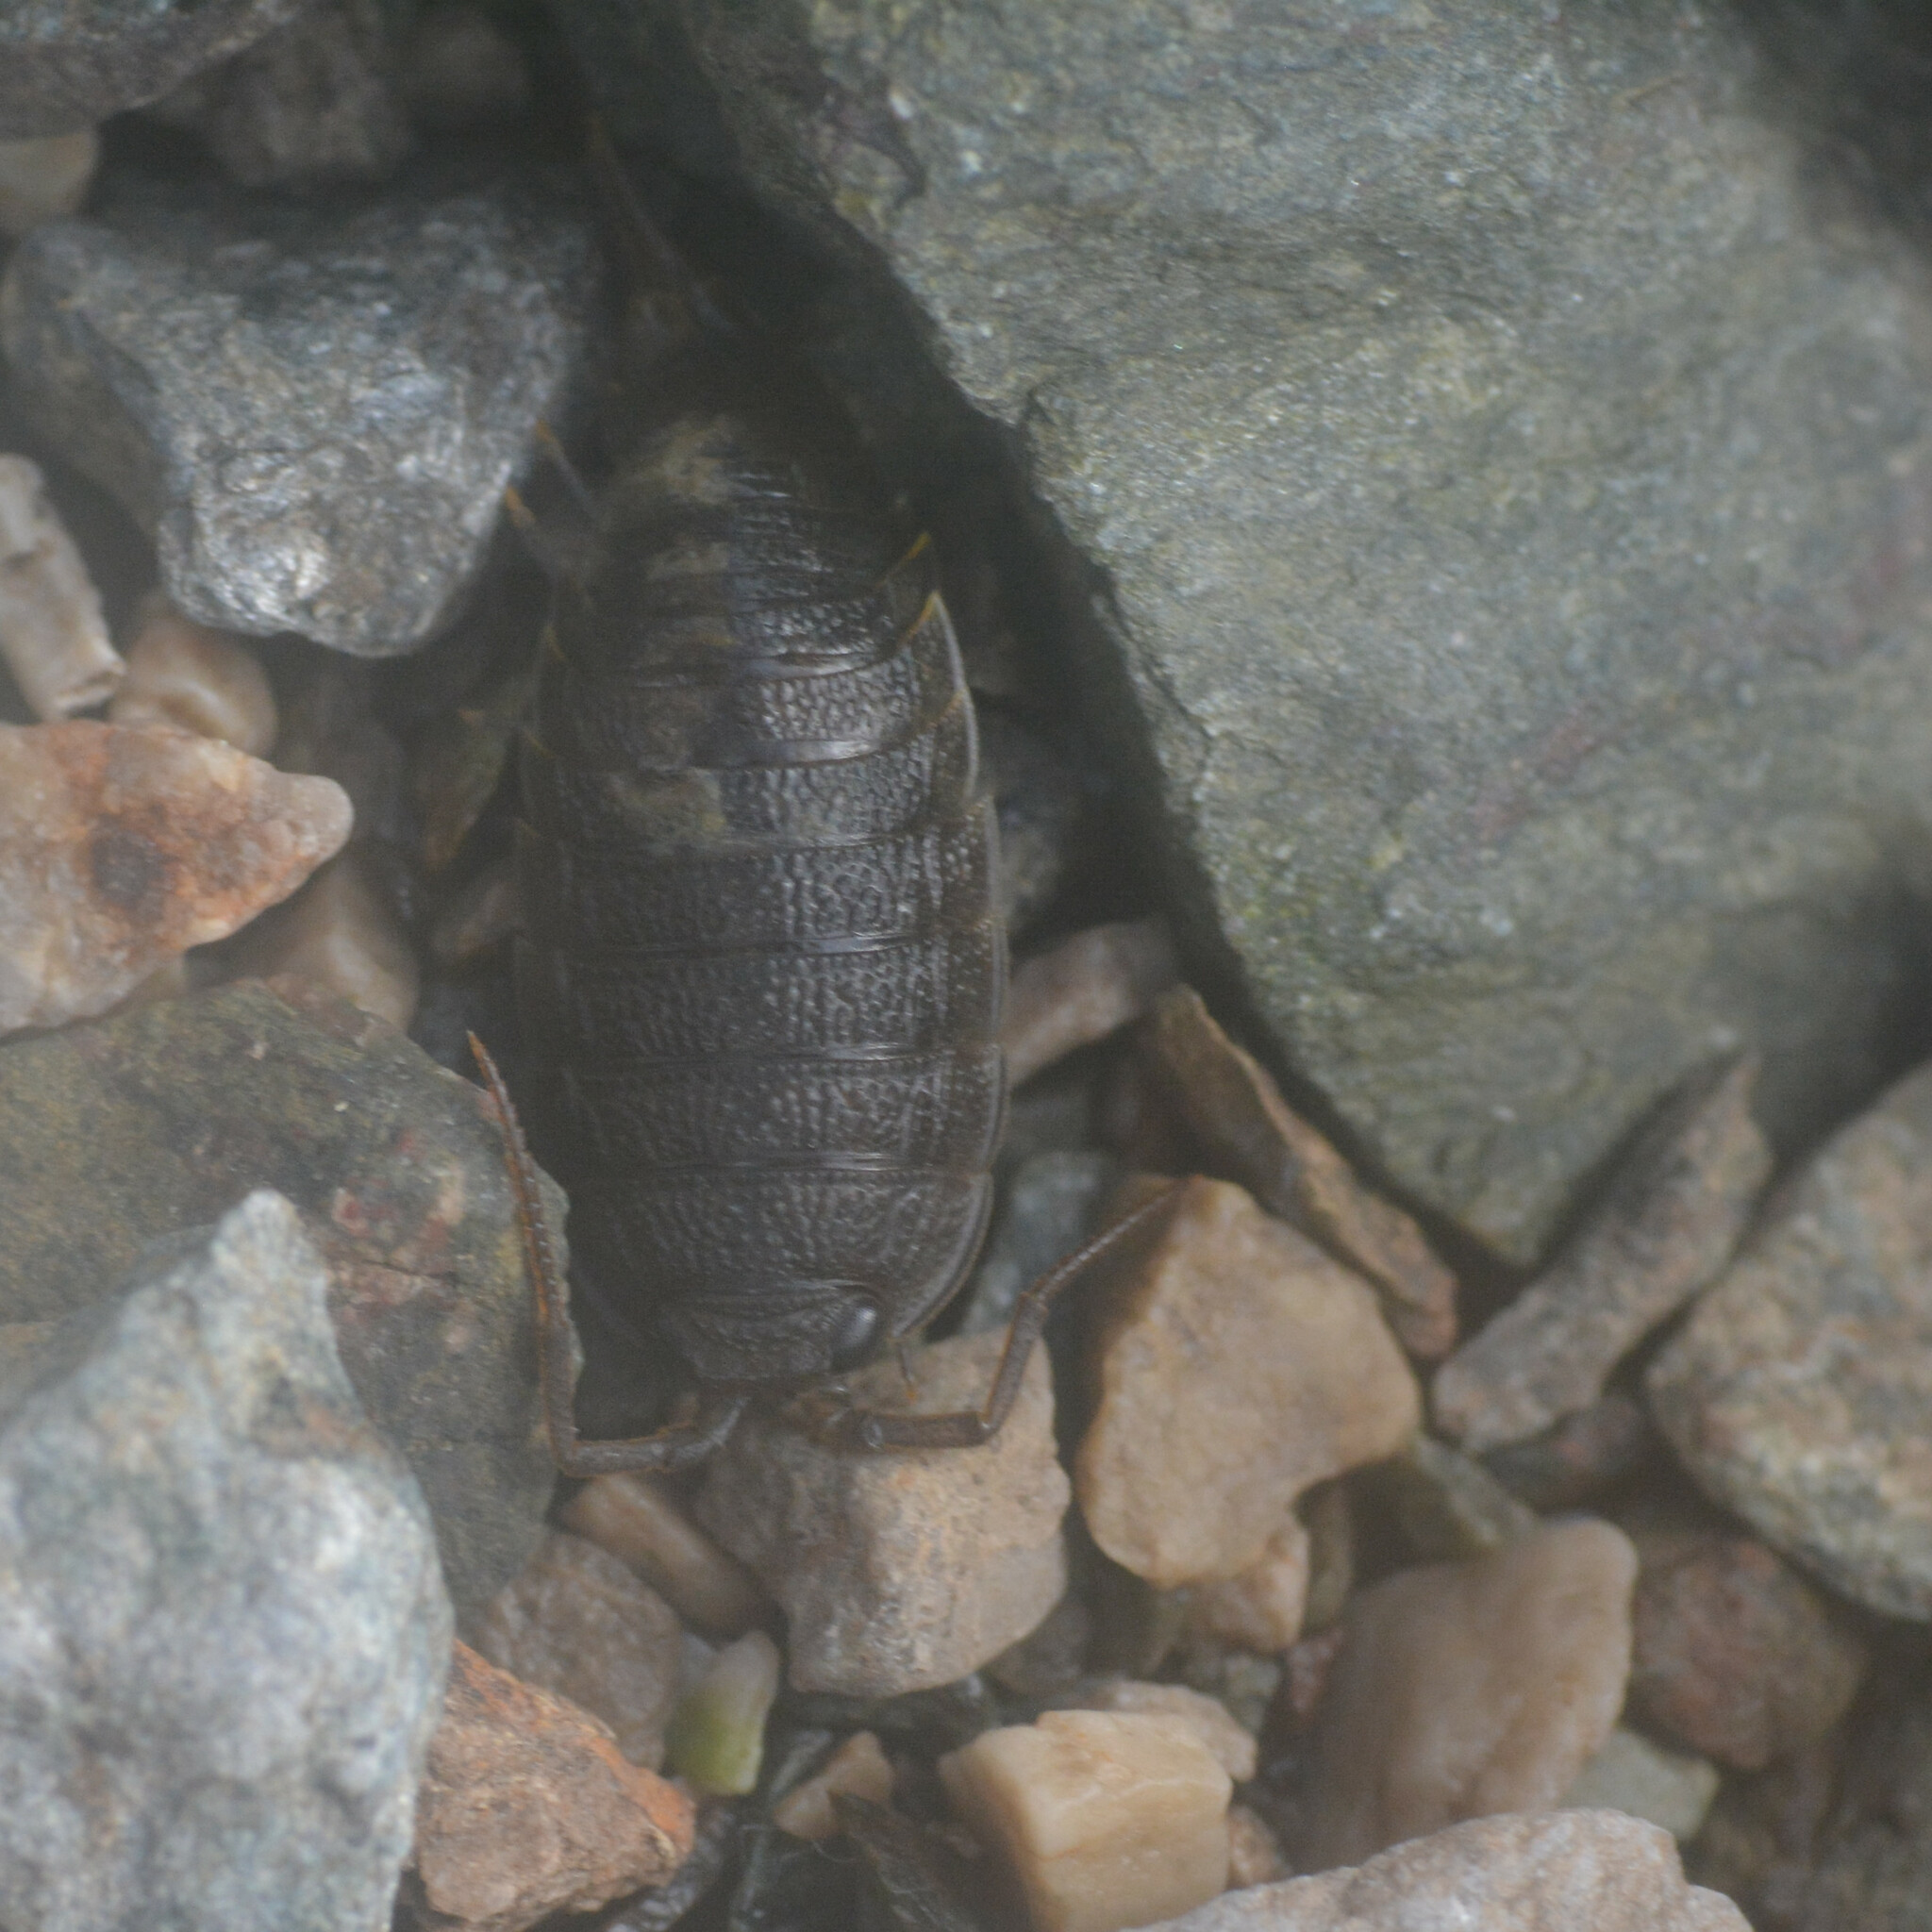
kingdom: Animalia
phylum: Arthropoda
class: Malacostraca
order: Isopoda
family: Ligiidae
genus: Ligia
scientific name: Ligia oceanica
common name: Sea slater
